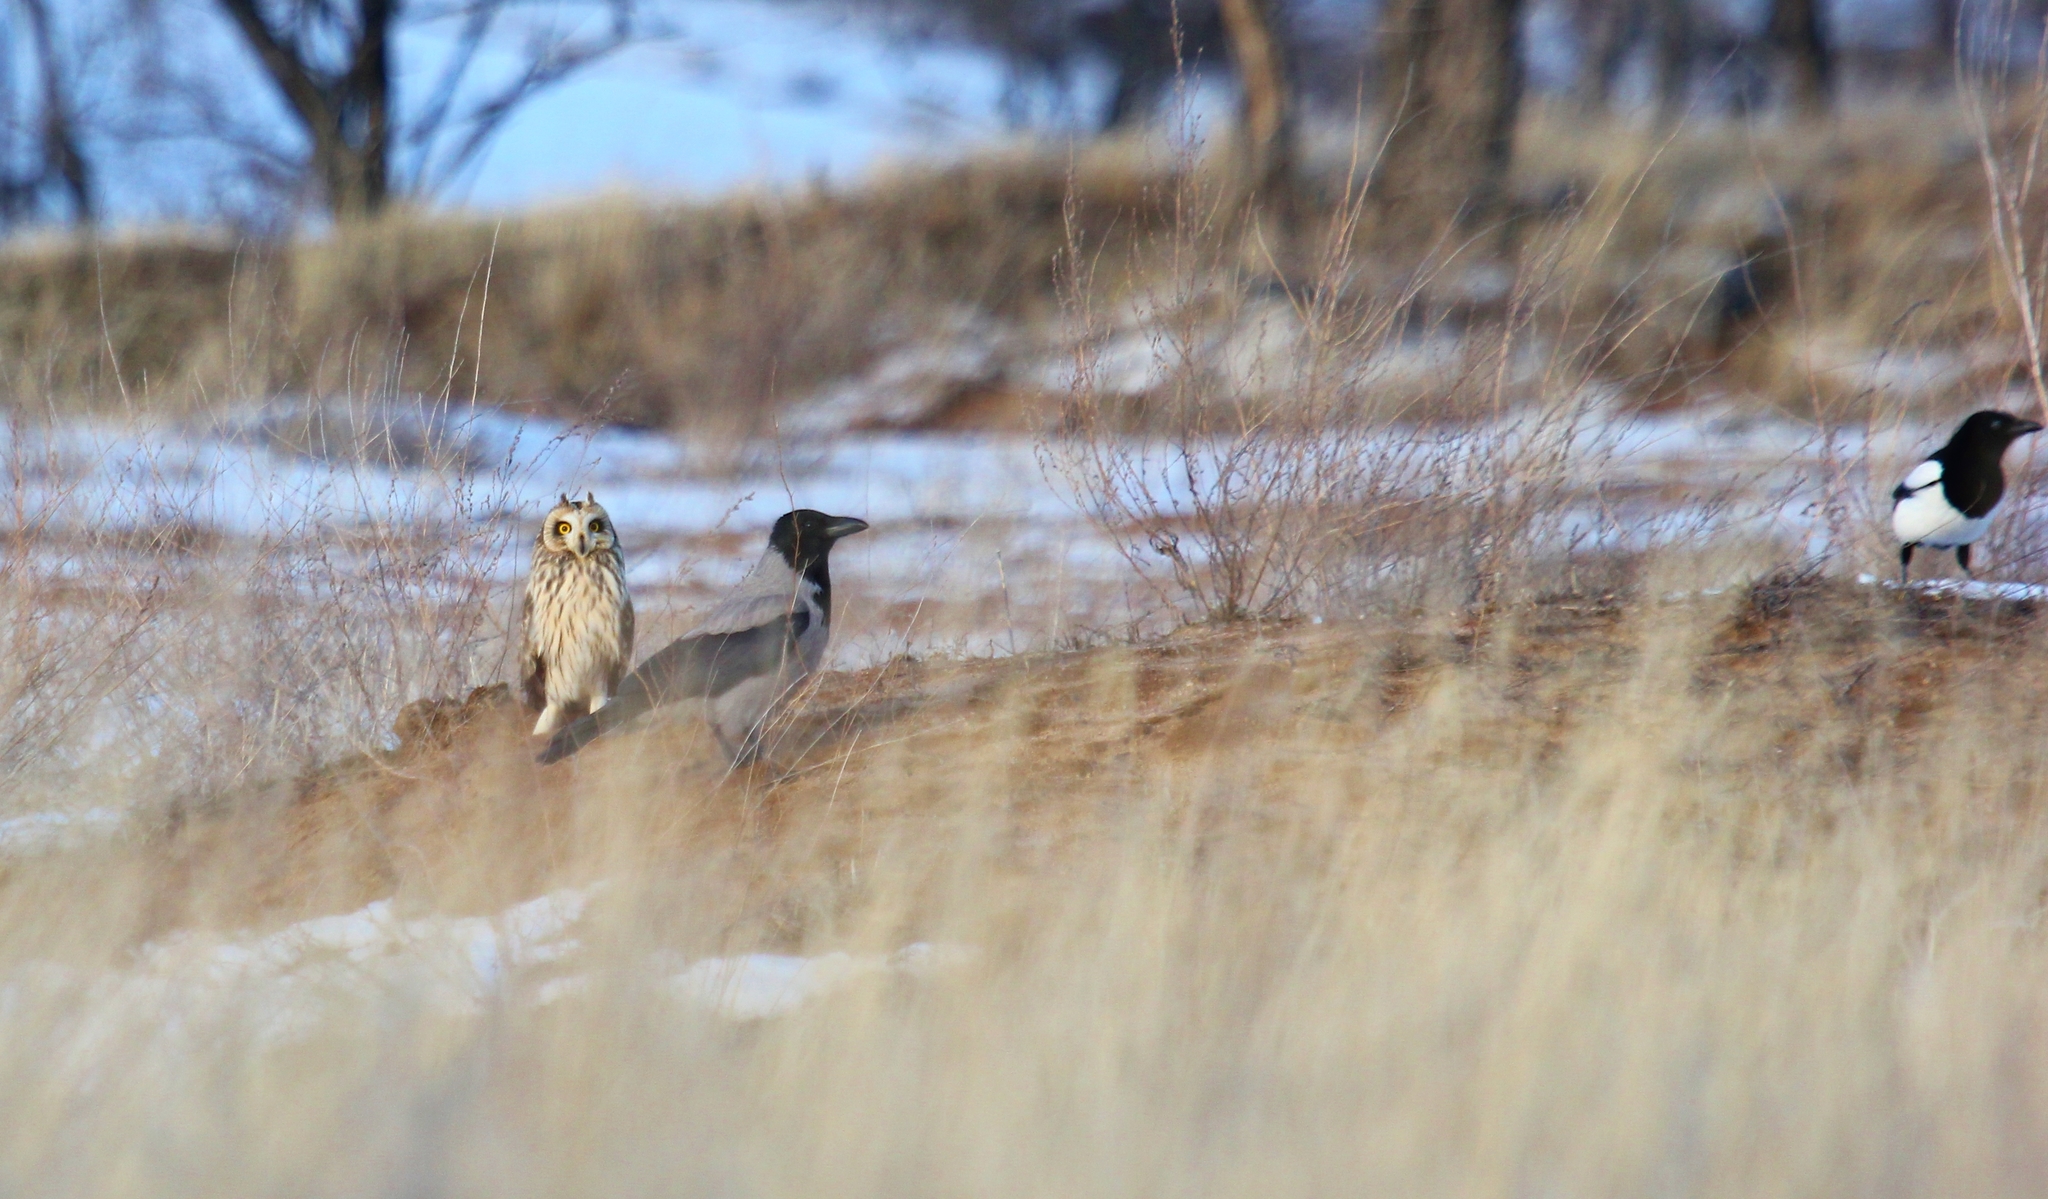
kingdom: Animalia
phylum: Chordata
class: Aves
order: Passeriformes
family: Corvidae
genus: Corvus
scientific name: Corvus cornix
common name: Hooded crow
